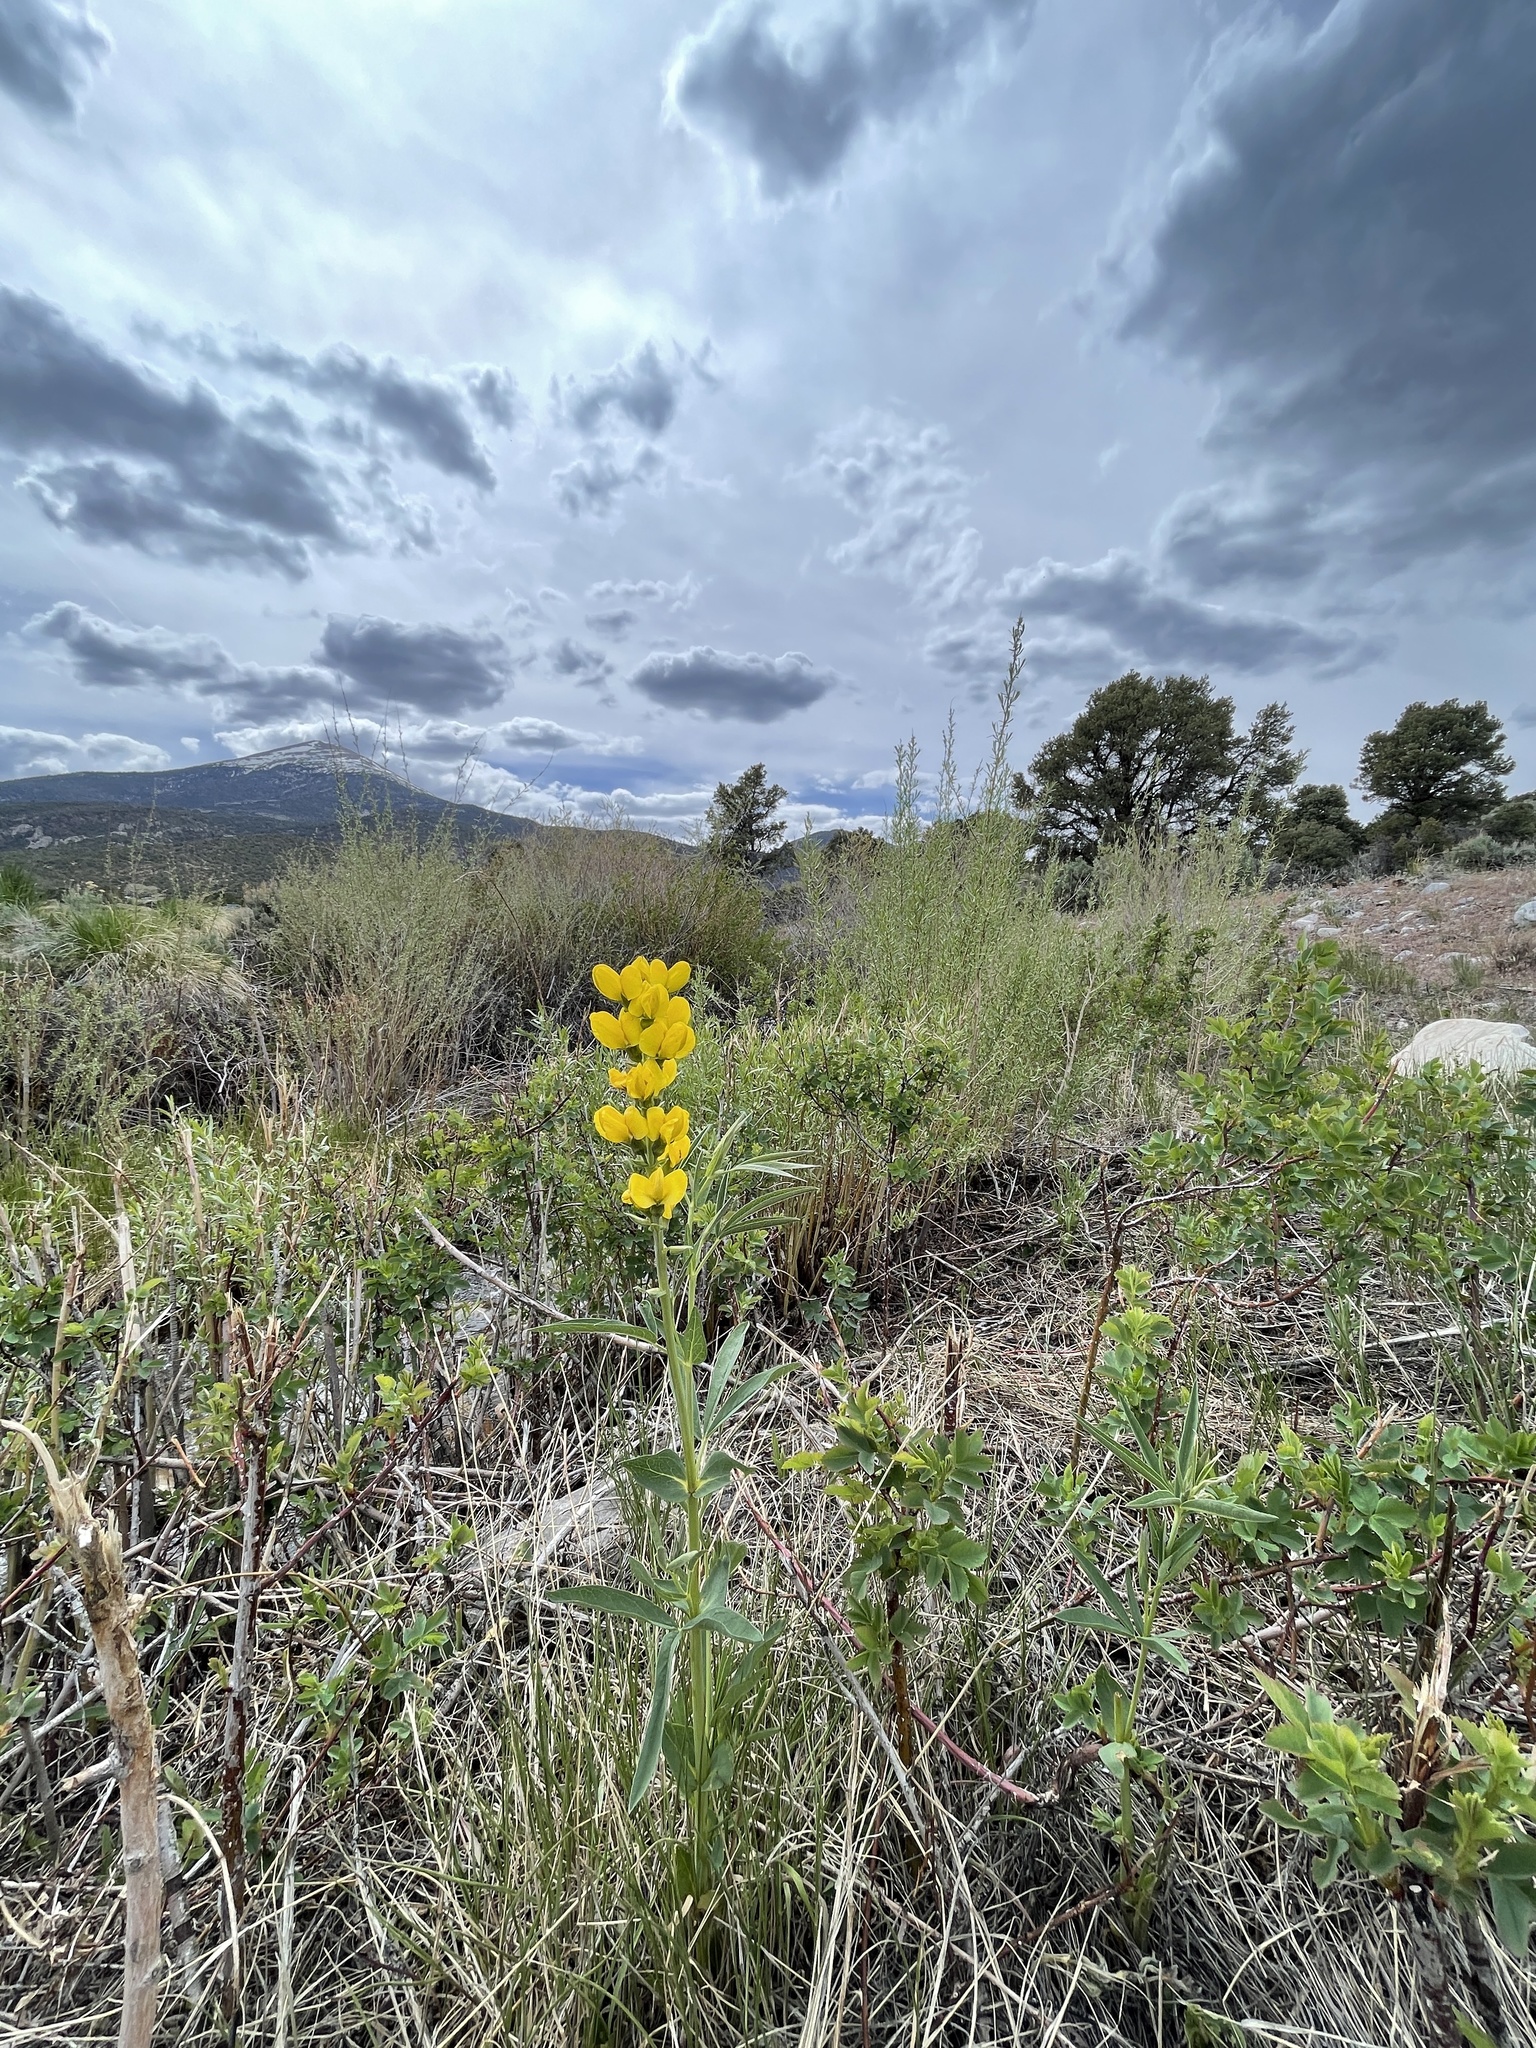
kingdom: Plantae
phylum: Tracheophyta
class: Magnoliopsida
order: Fabales
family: Fabaceae
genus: Thermopsis
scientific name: Thermopsis rhombifolia
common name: Circle-pod-pea
